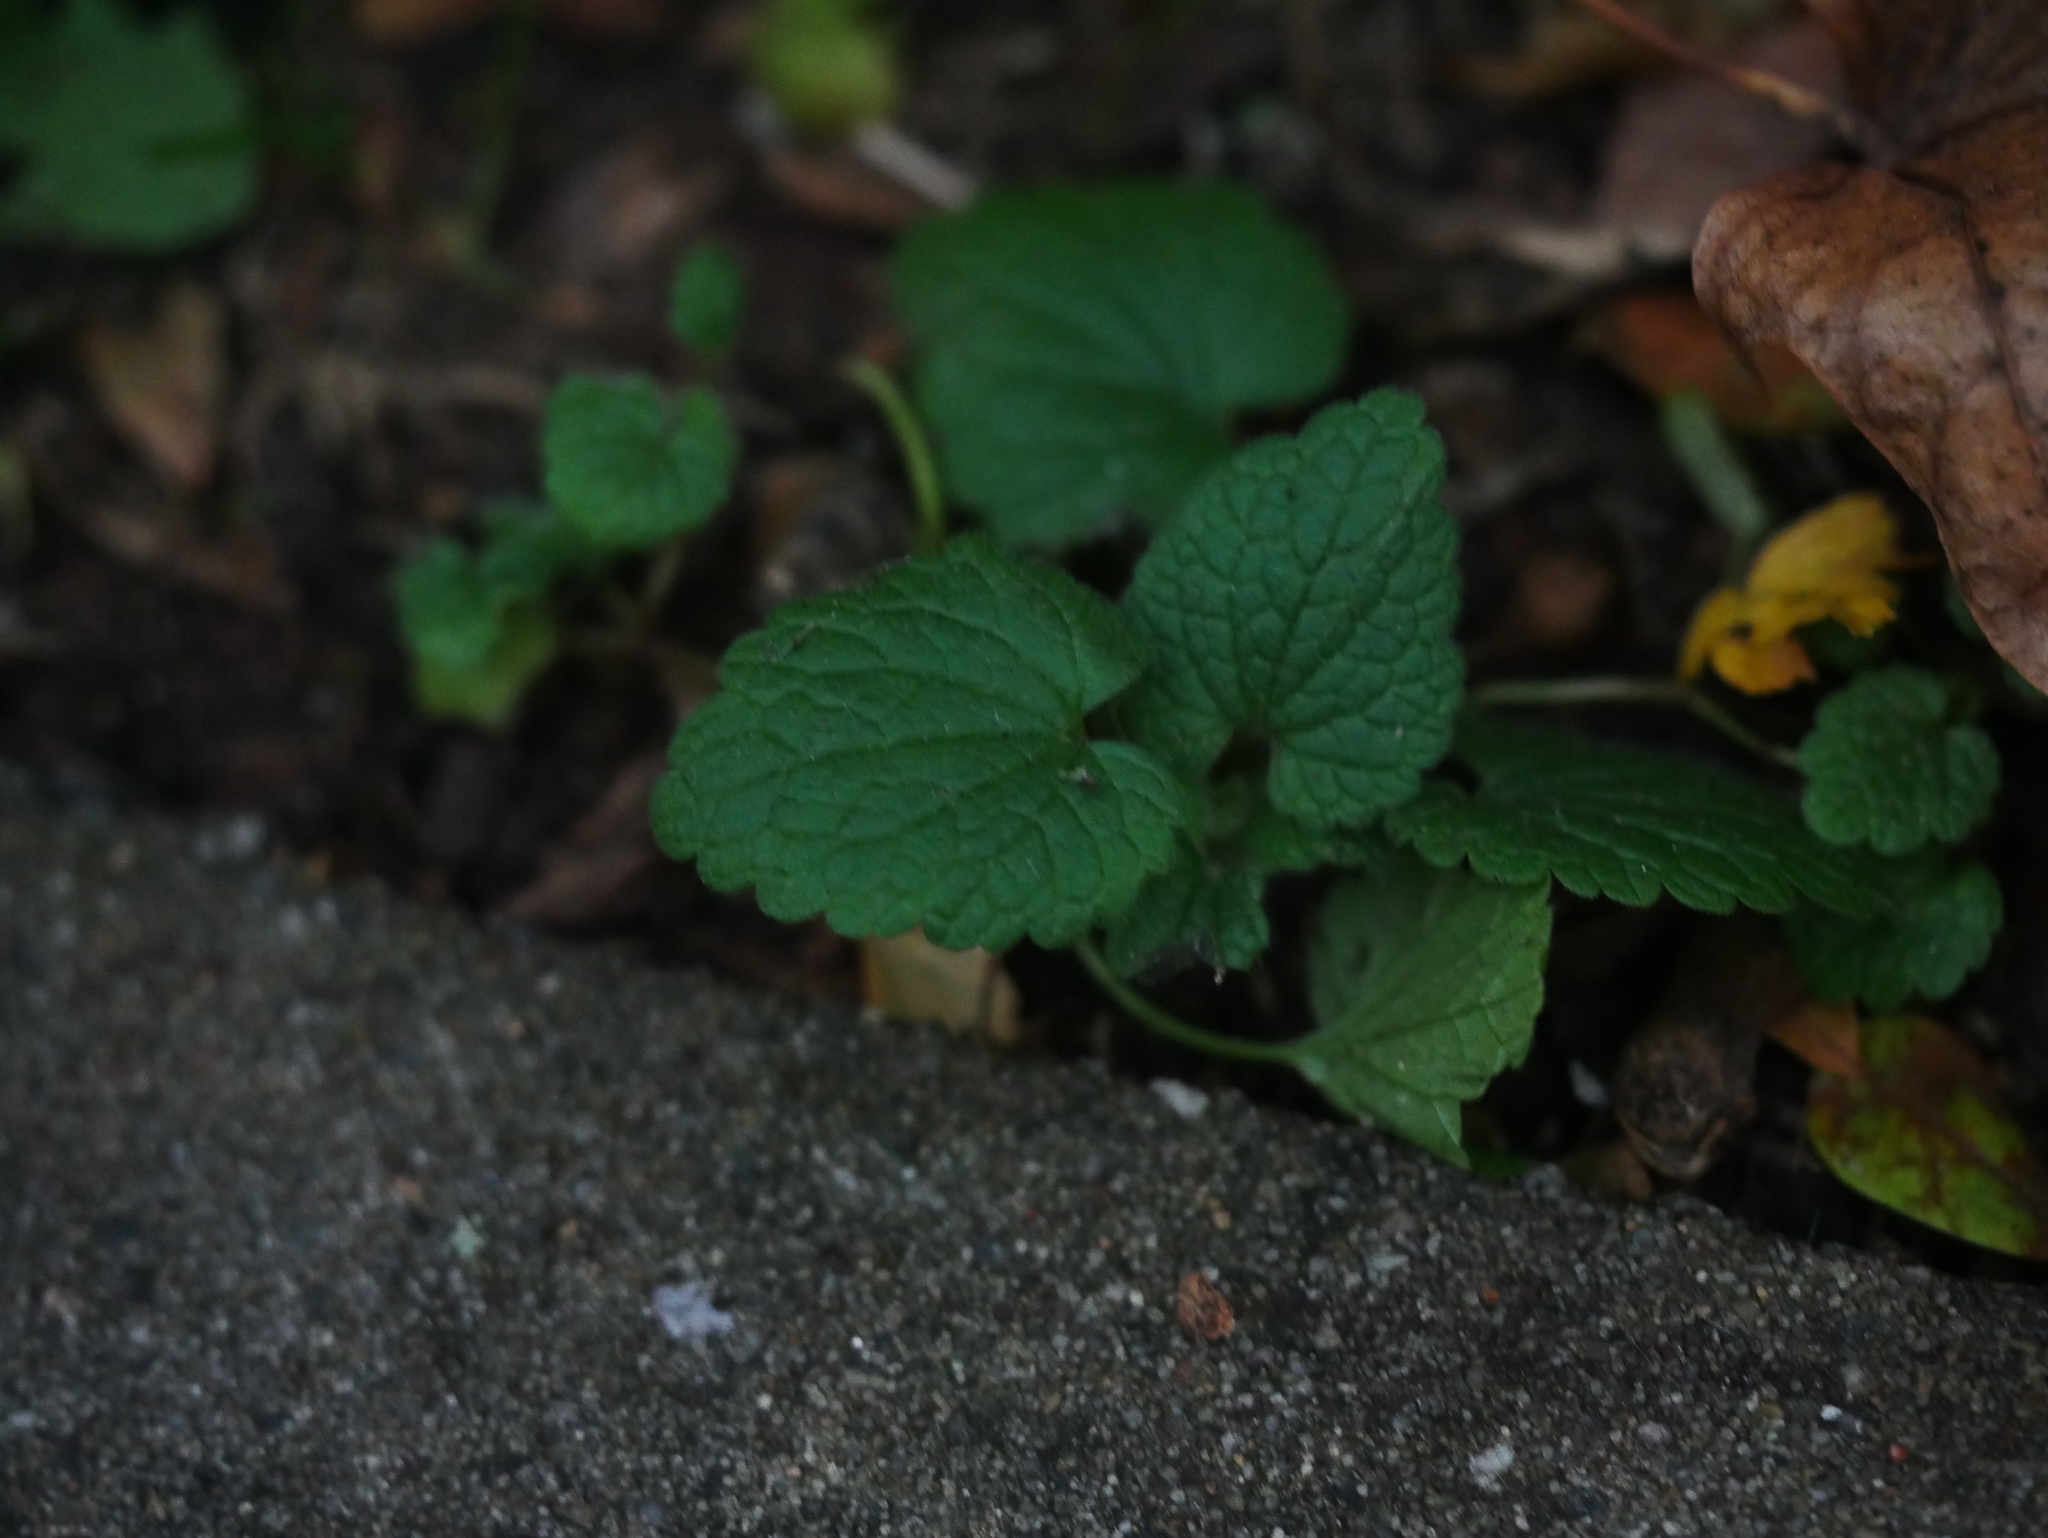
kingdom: Plantae
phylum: Tracheophyta
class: Magnoliopsida
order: Lamiales
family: Lamiaceae
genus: Lamium
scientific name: Lamium purpureum
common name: Red dead-nettle
